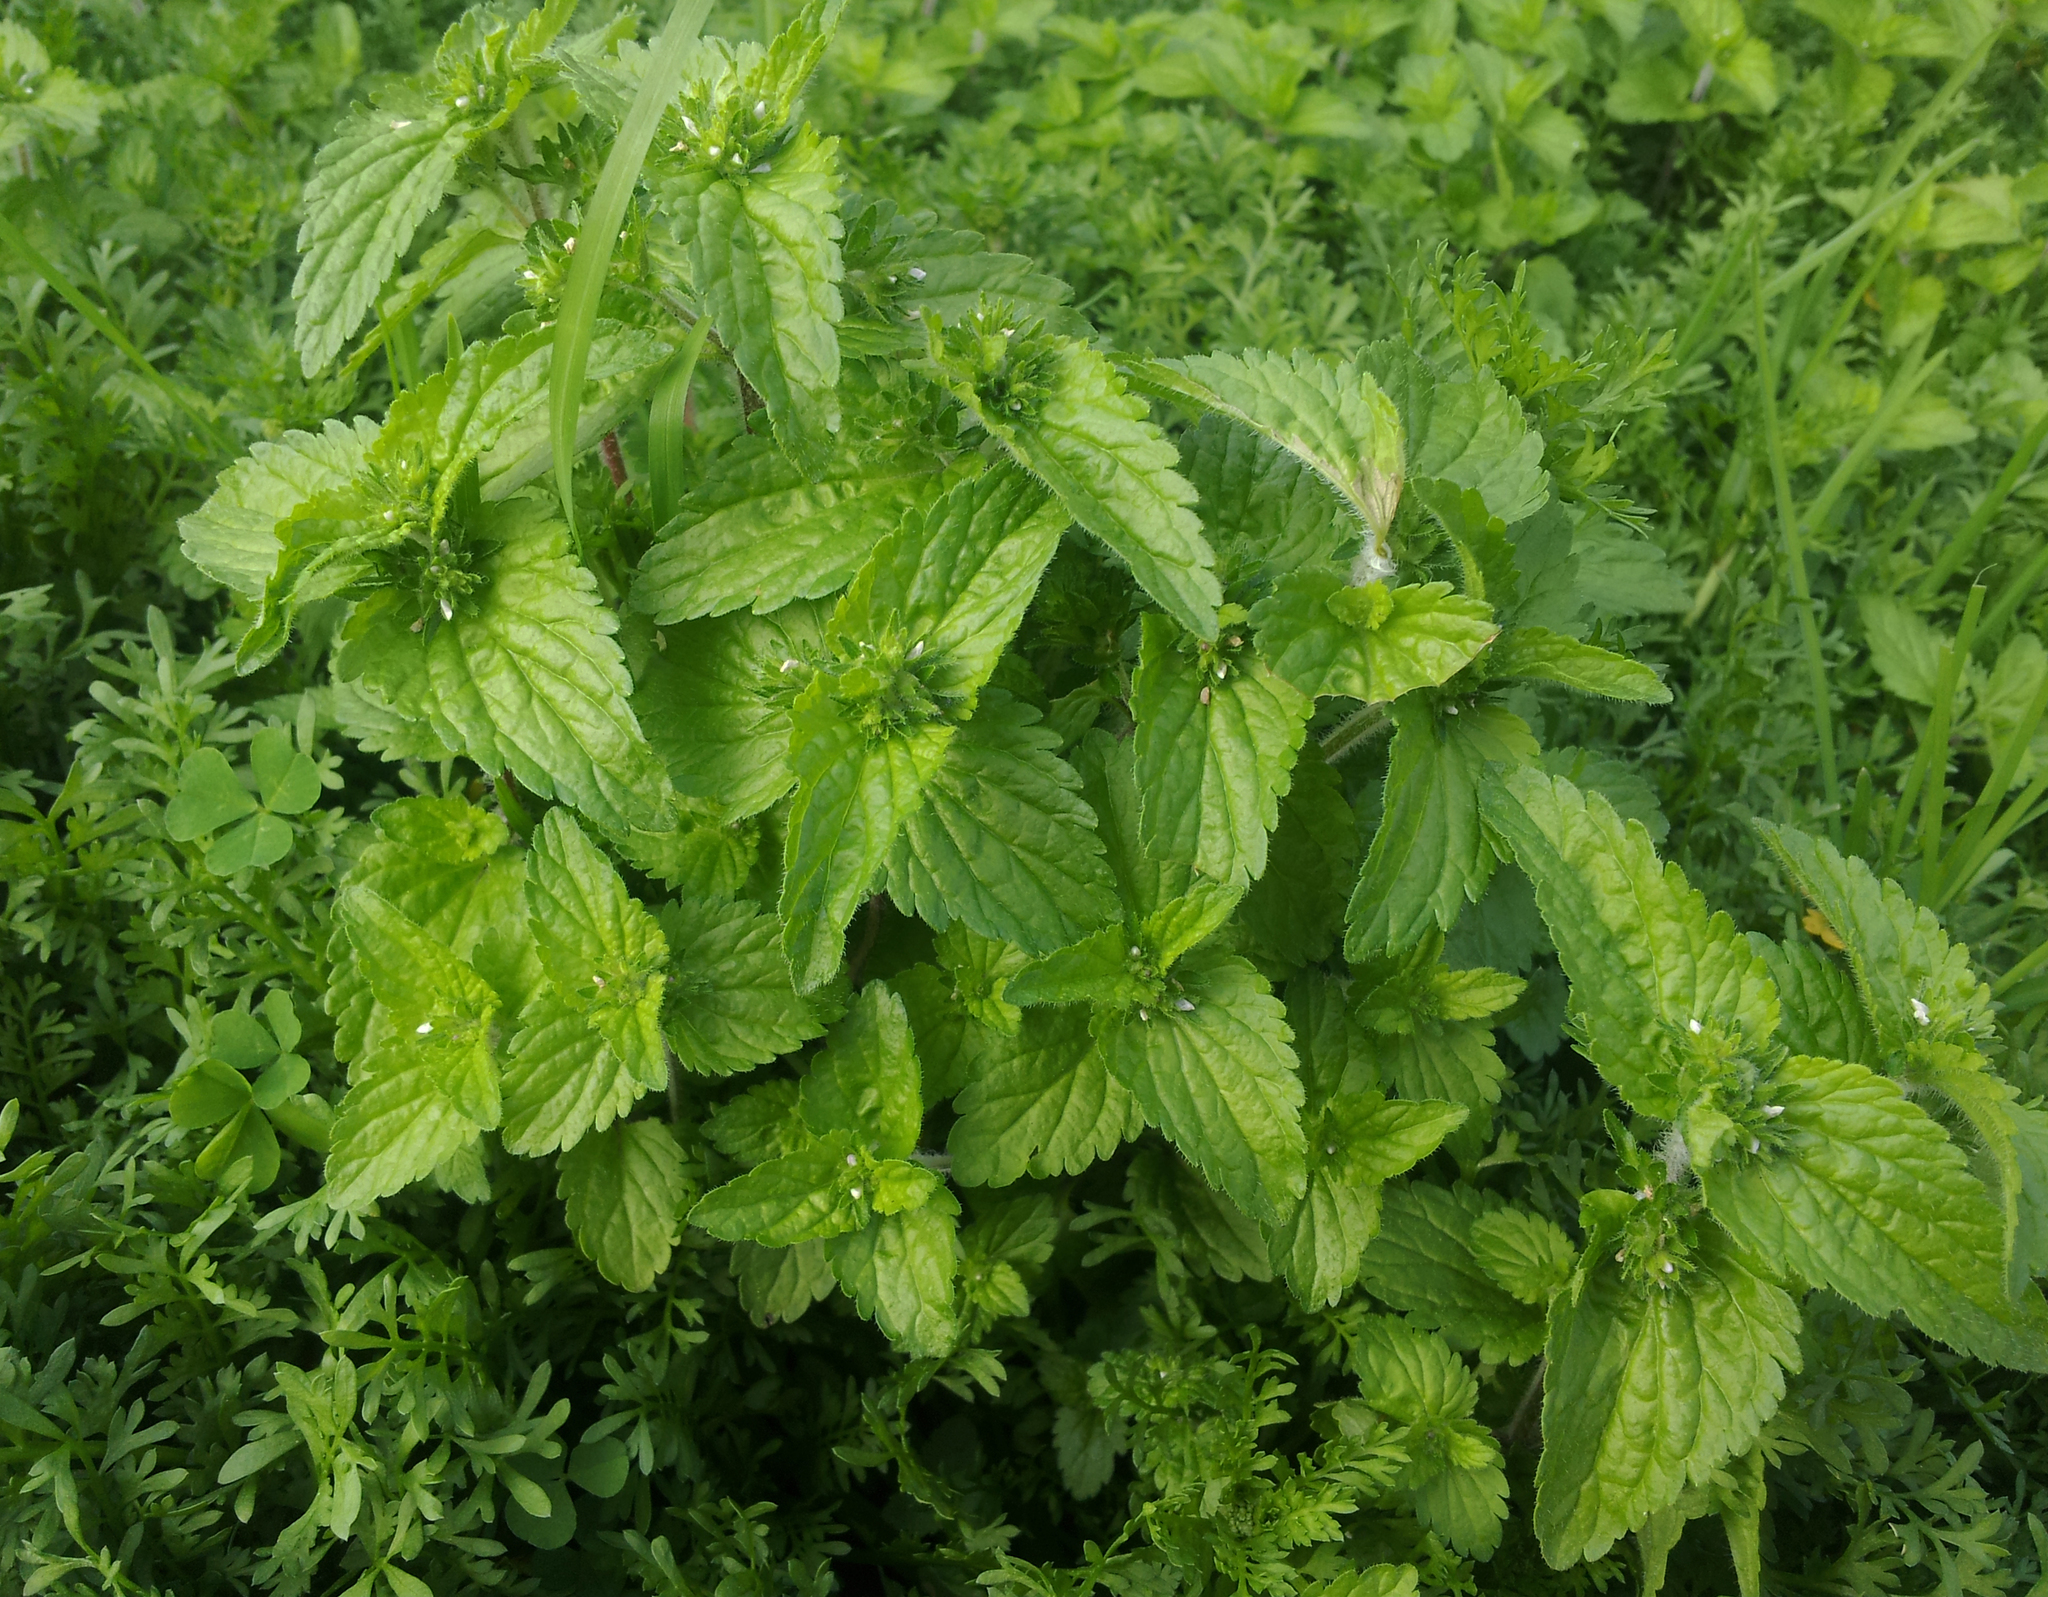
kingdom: Plantae
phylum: Tracheophyta
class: Magnoliopsida
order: Lamiales
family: Plantaginaceae
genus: Veronica
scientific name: Veronica javanica
